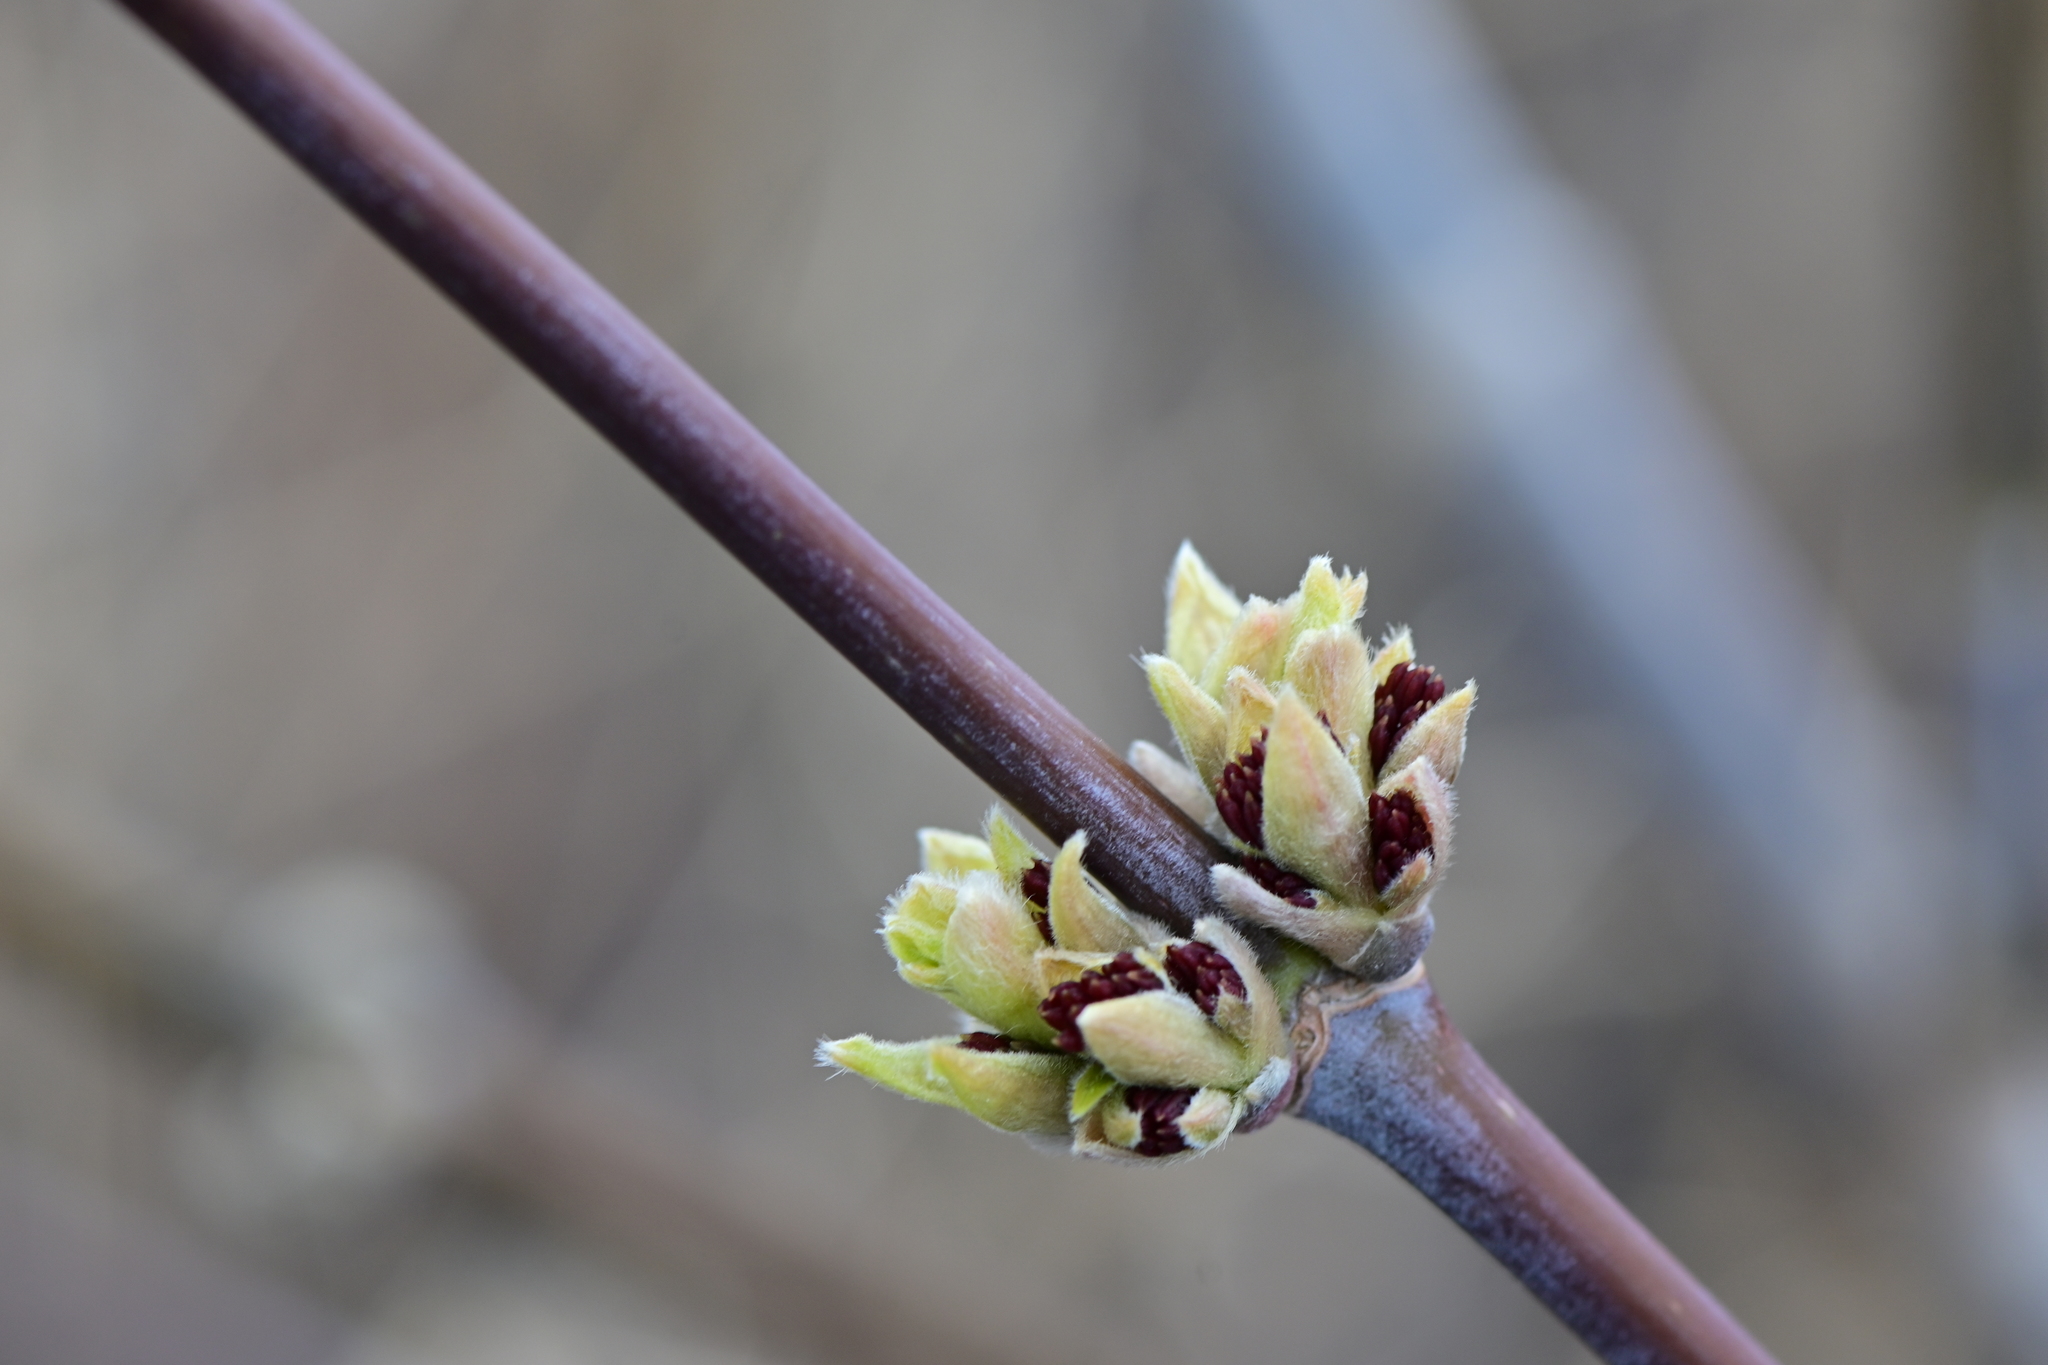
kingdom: Plantae
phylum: Tracheophyta
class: Magnoliopsida
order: Sapindales
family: Sapindaceae
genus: Acer
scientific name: Acer negundo
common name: Ashleaf maple
